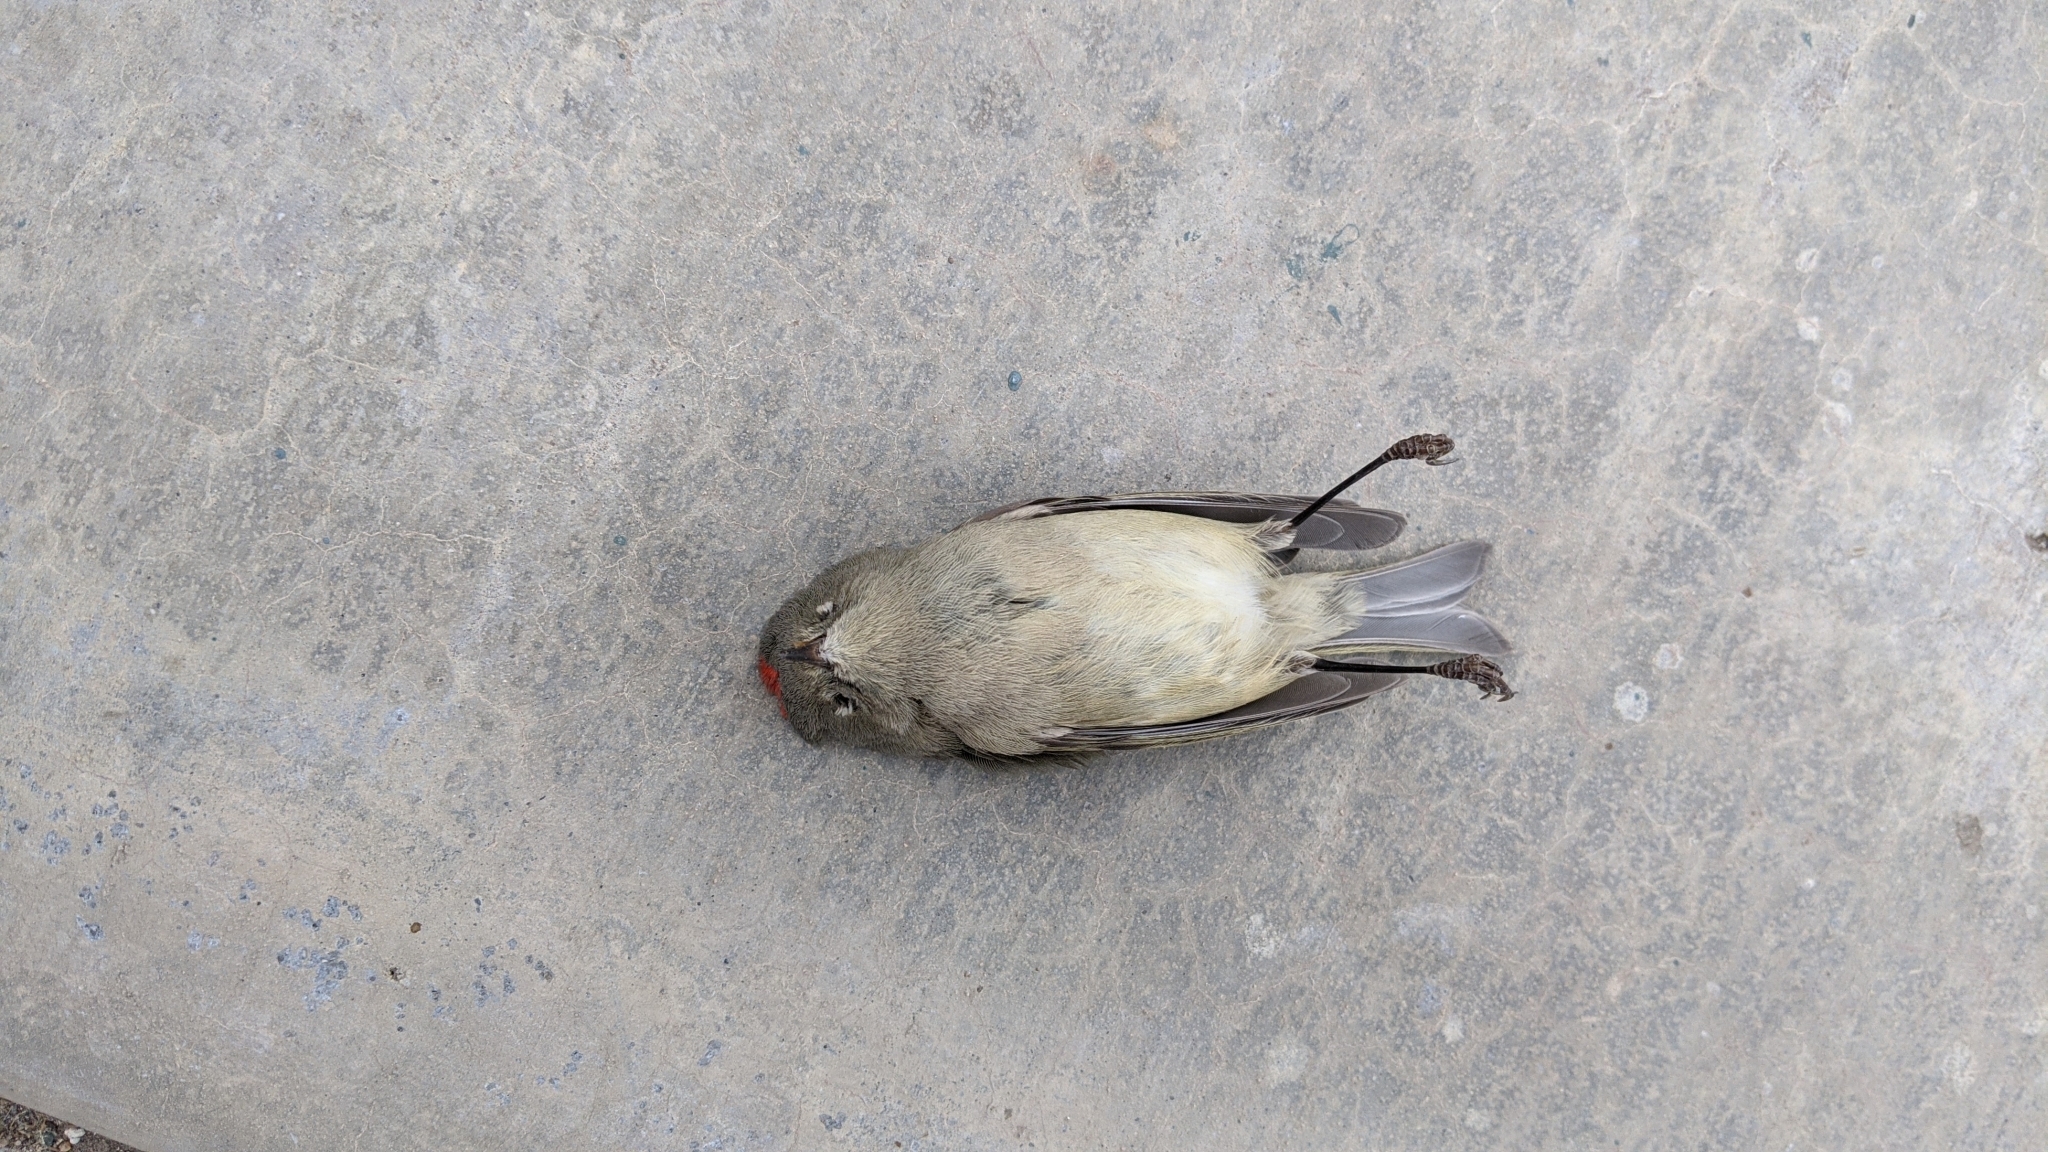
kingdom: Animalia
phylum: Chordata
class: Aves
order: Passeriformes
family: Regulidae
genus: Regulus
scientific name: Regulus calendula
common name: Ruby-crowned kinglet
